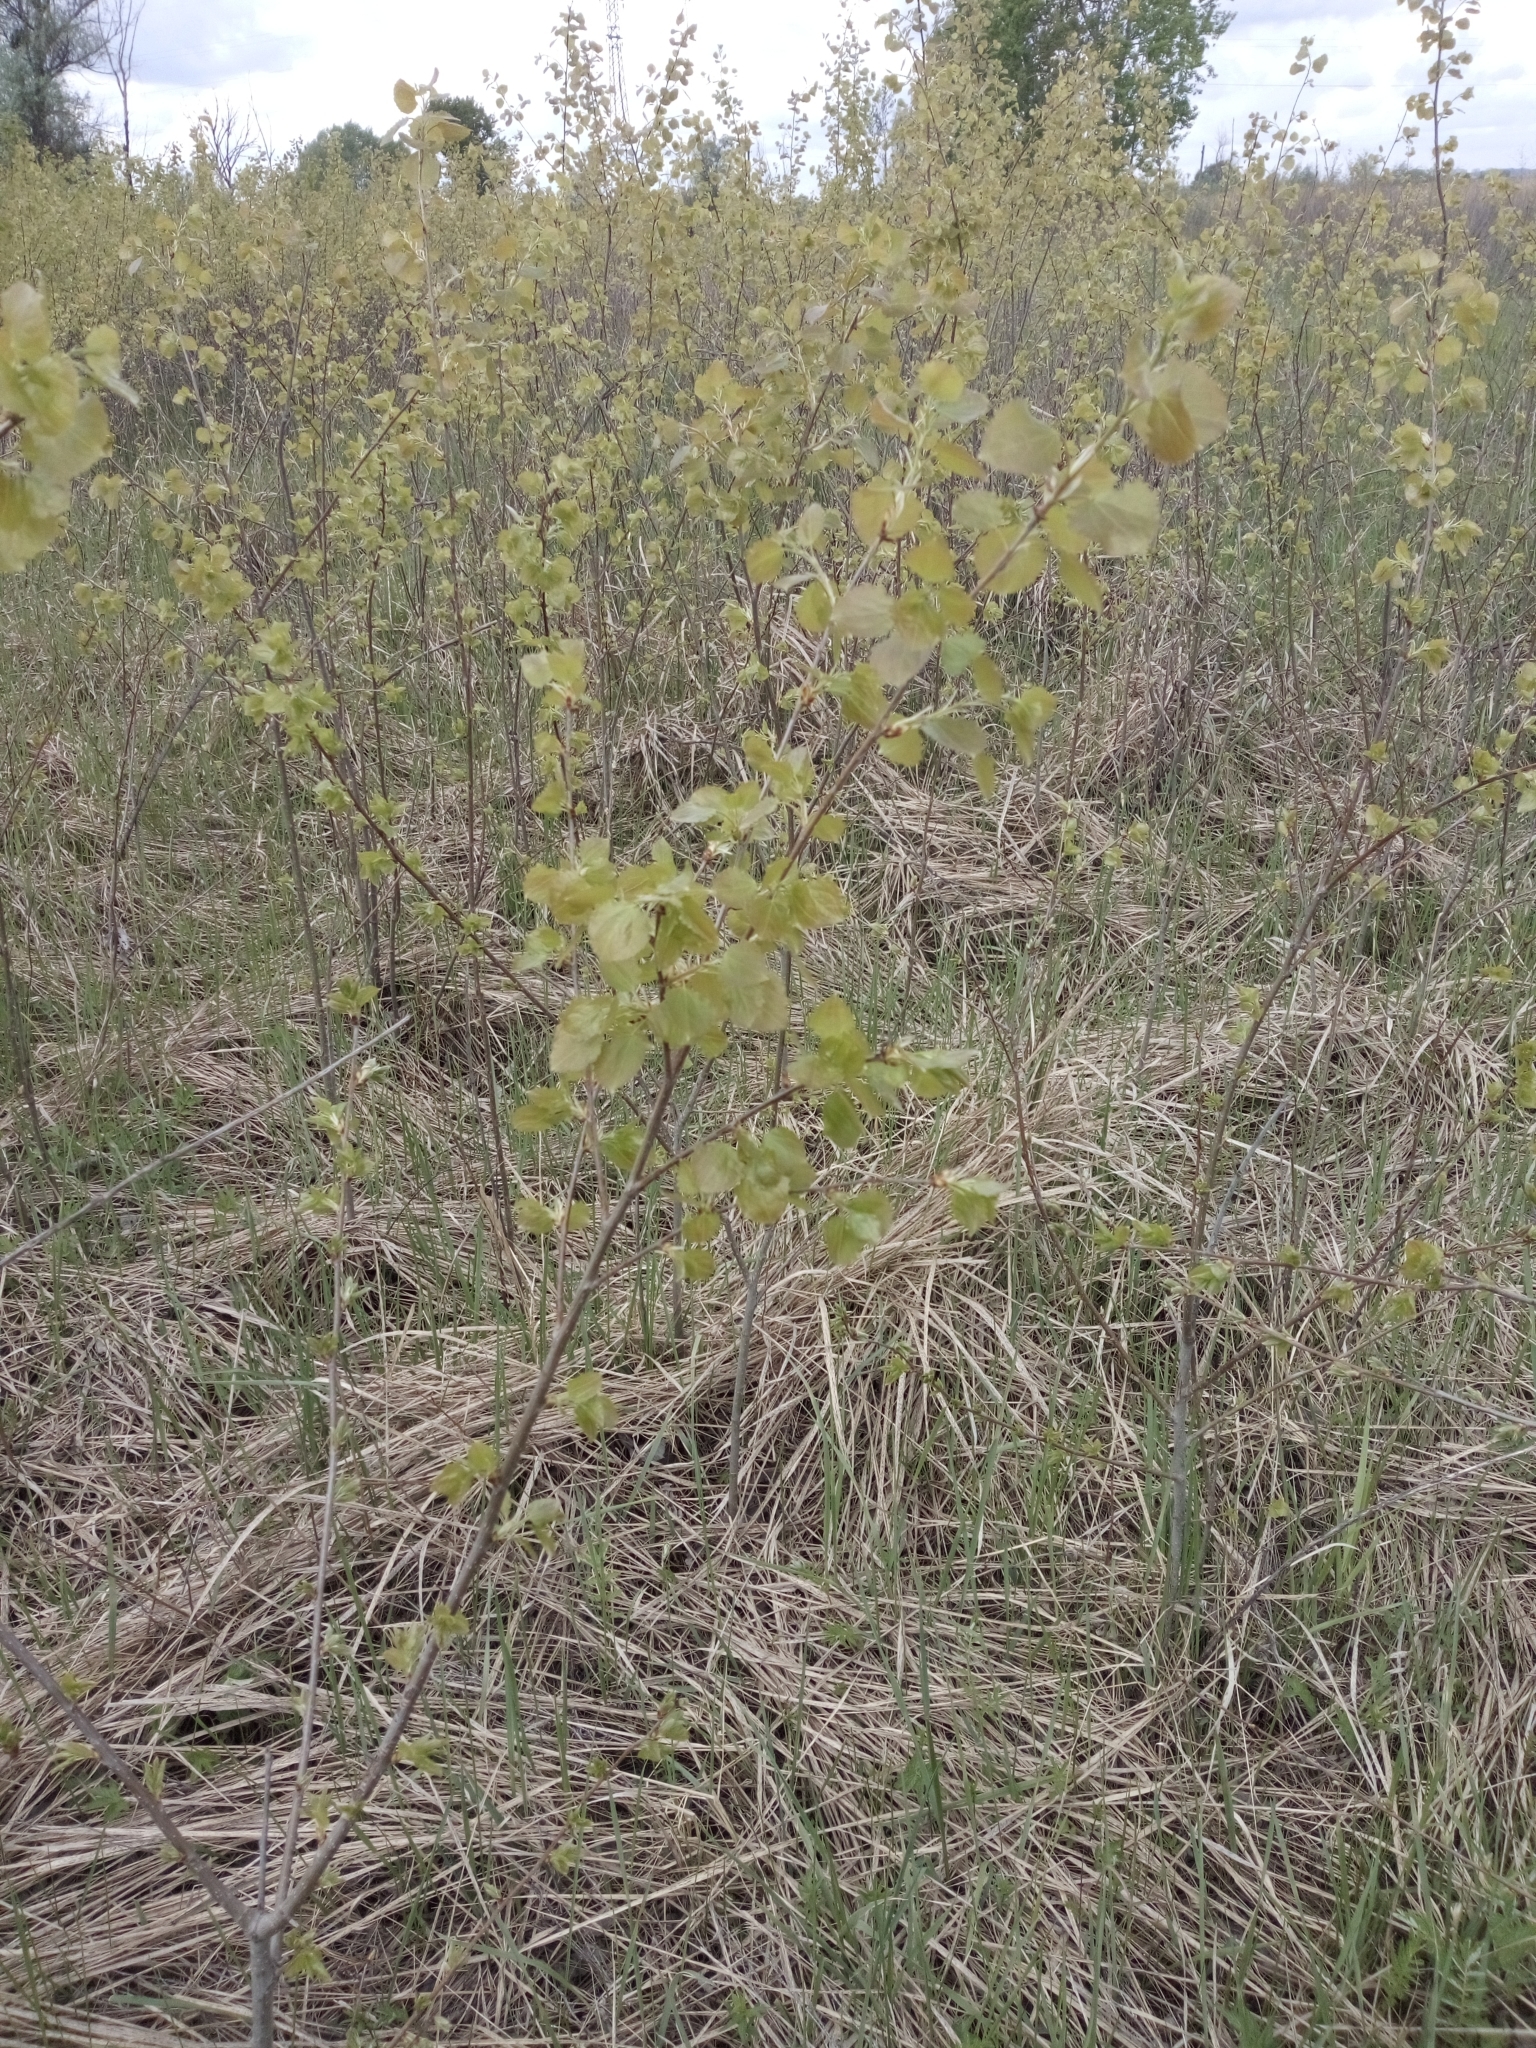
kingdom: Plantae
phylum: Tracheophyta
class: Magnoliopsida
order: Malpighiales
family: Salicaceae
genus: Populus
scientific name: Populus tremula
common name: European aspen
